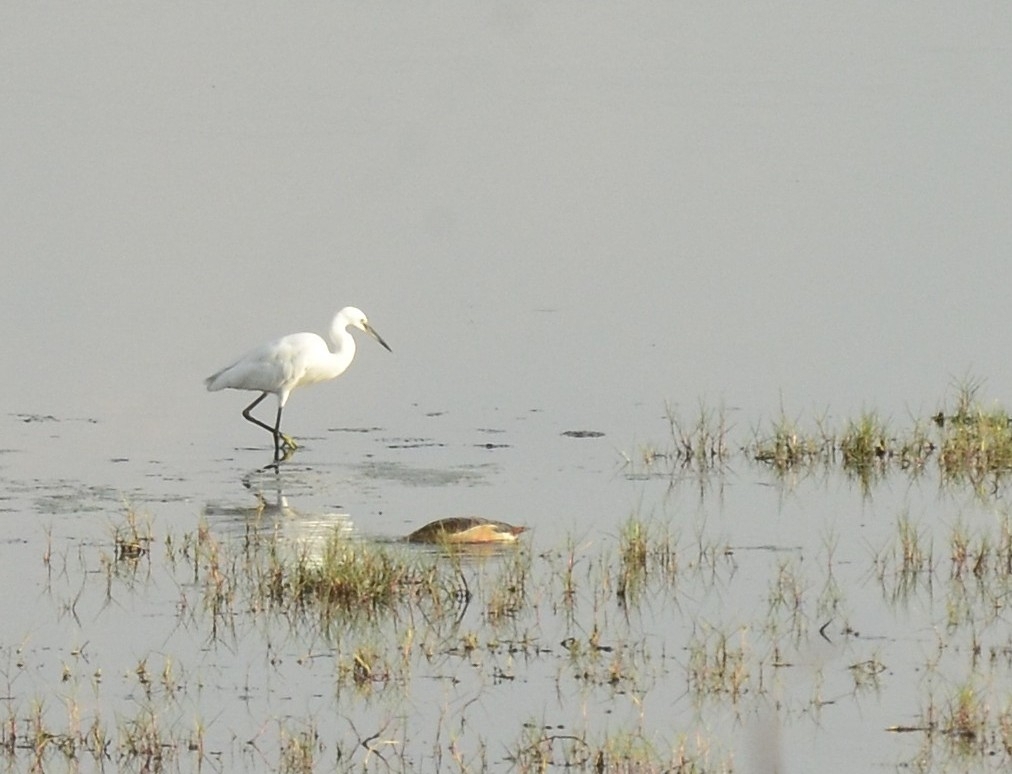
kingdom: Animalia
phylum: Chordata
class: Aves
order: Pelecaniformes
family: Ardeidae
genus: Egretta
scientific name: Egretta garzetta
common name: Little egret
